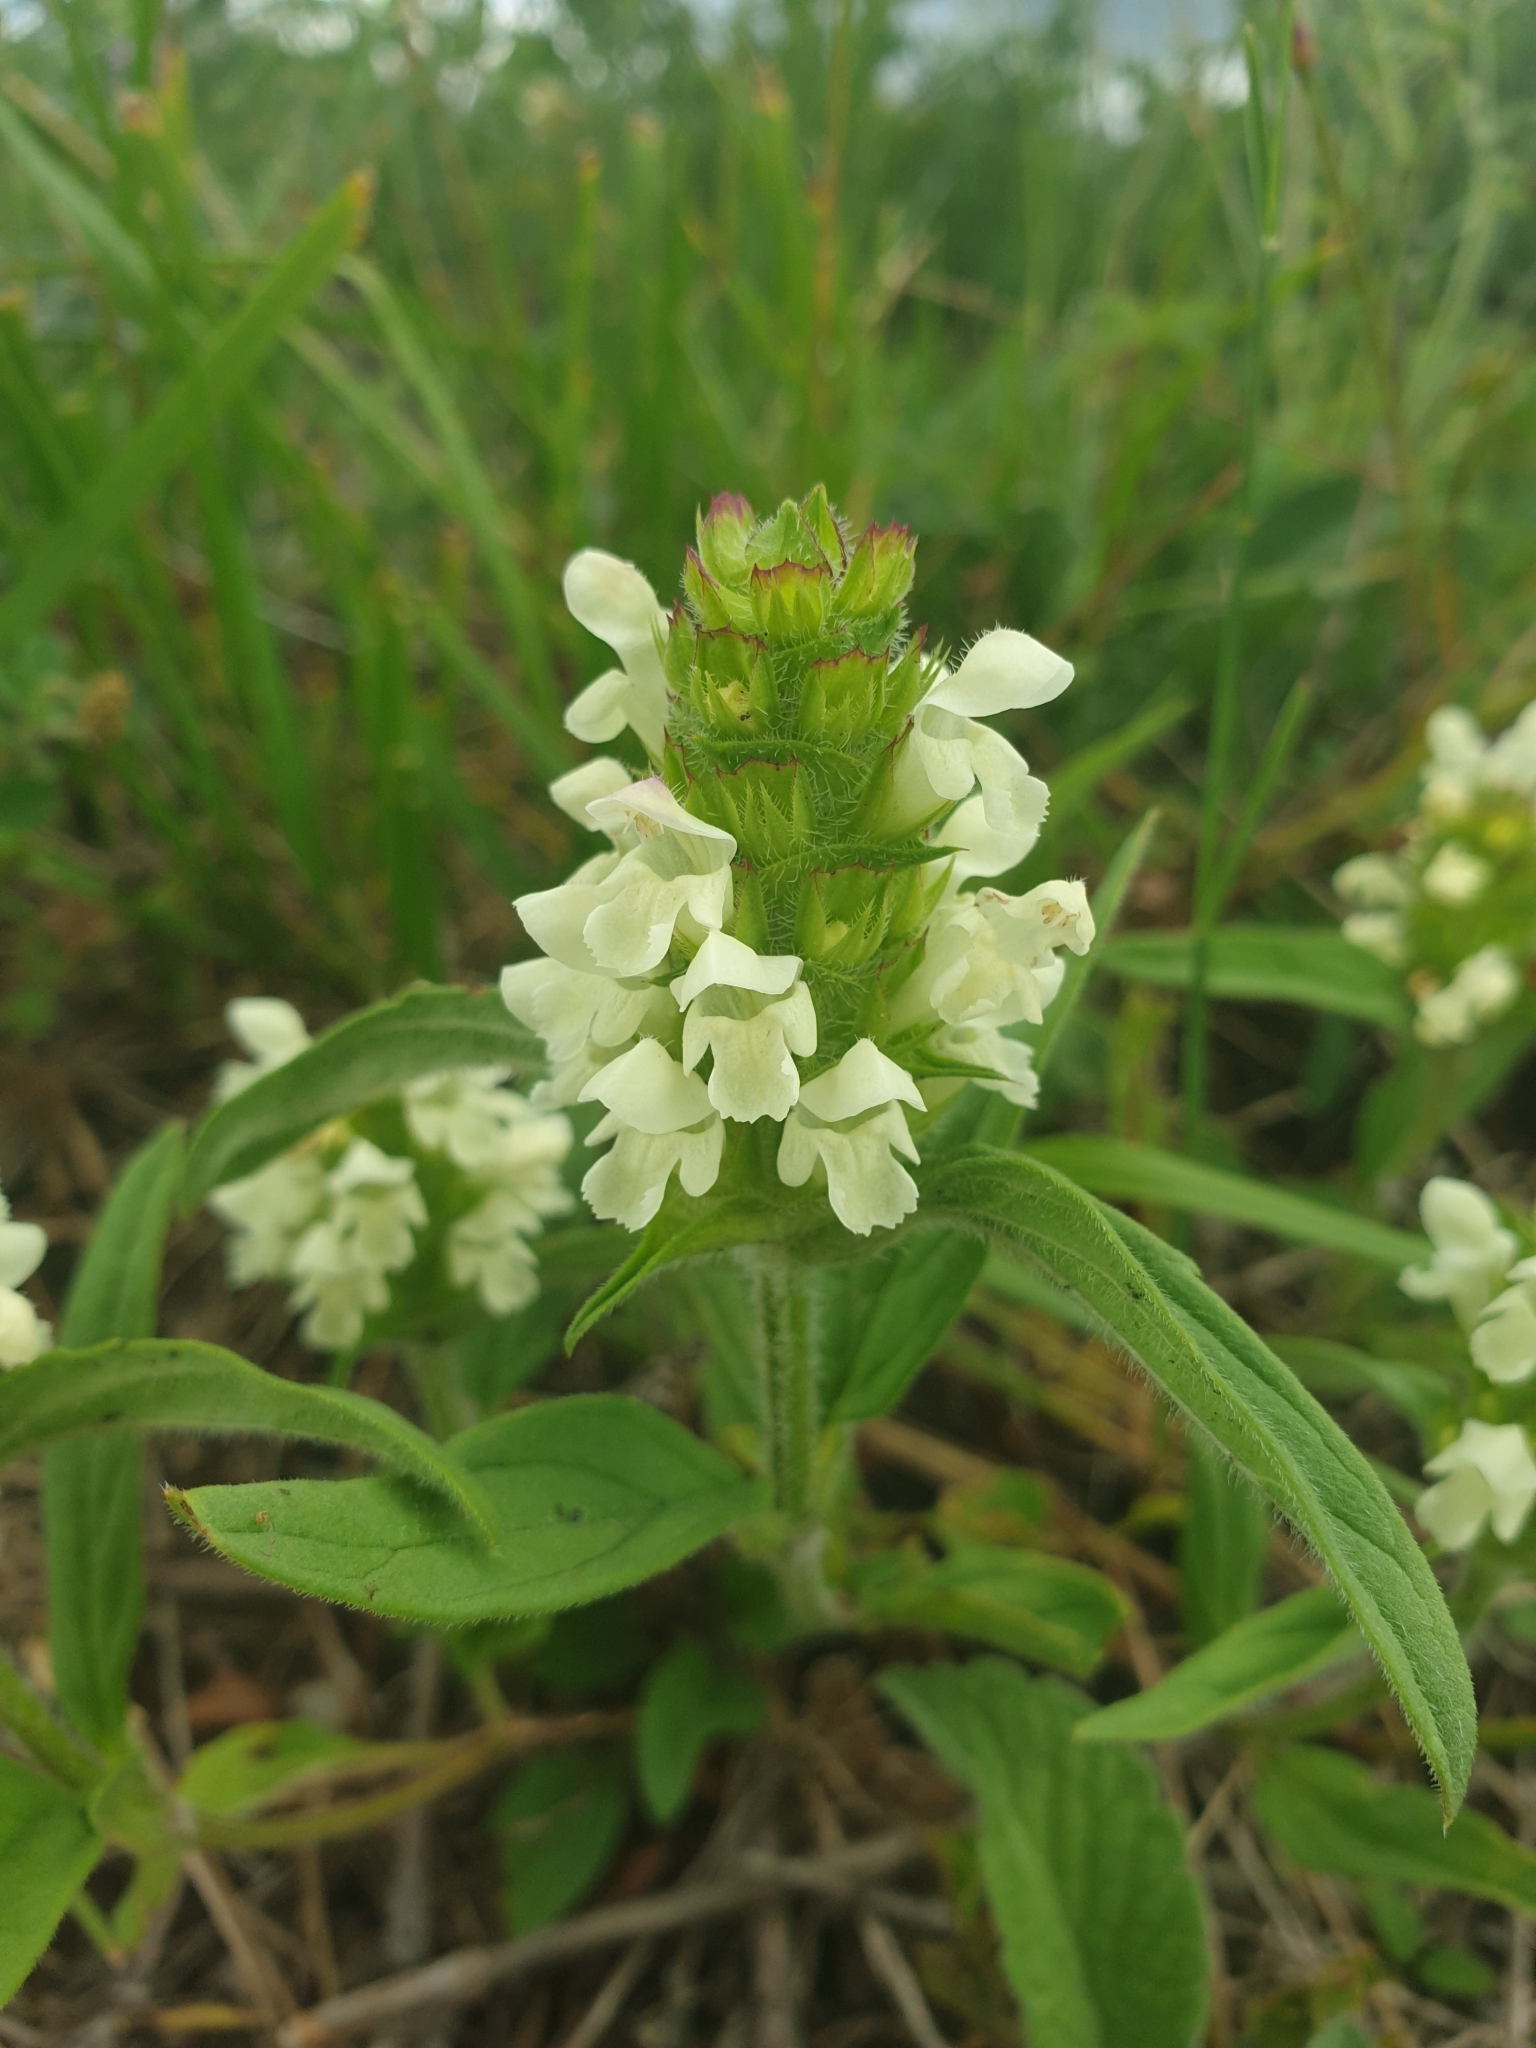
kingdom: Plantae
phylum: Tracheophyta
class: Magnoliopsida
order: Lamiales
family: Lamiaceae
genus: Prunella
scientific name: Prunella laciniata
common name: Cut-leaved selfheal
